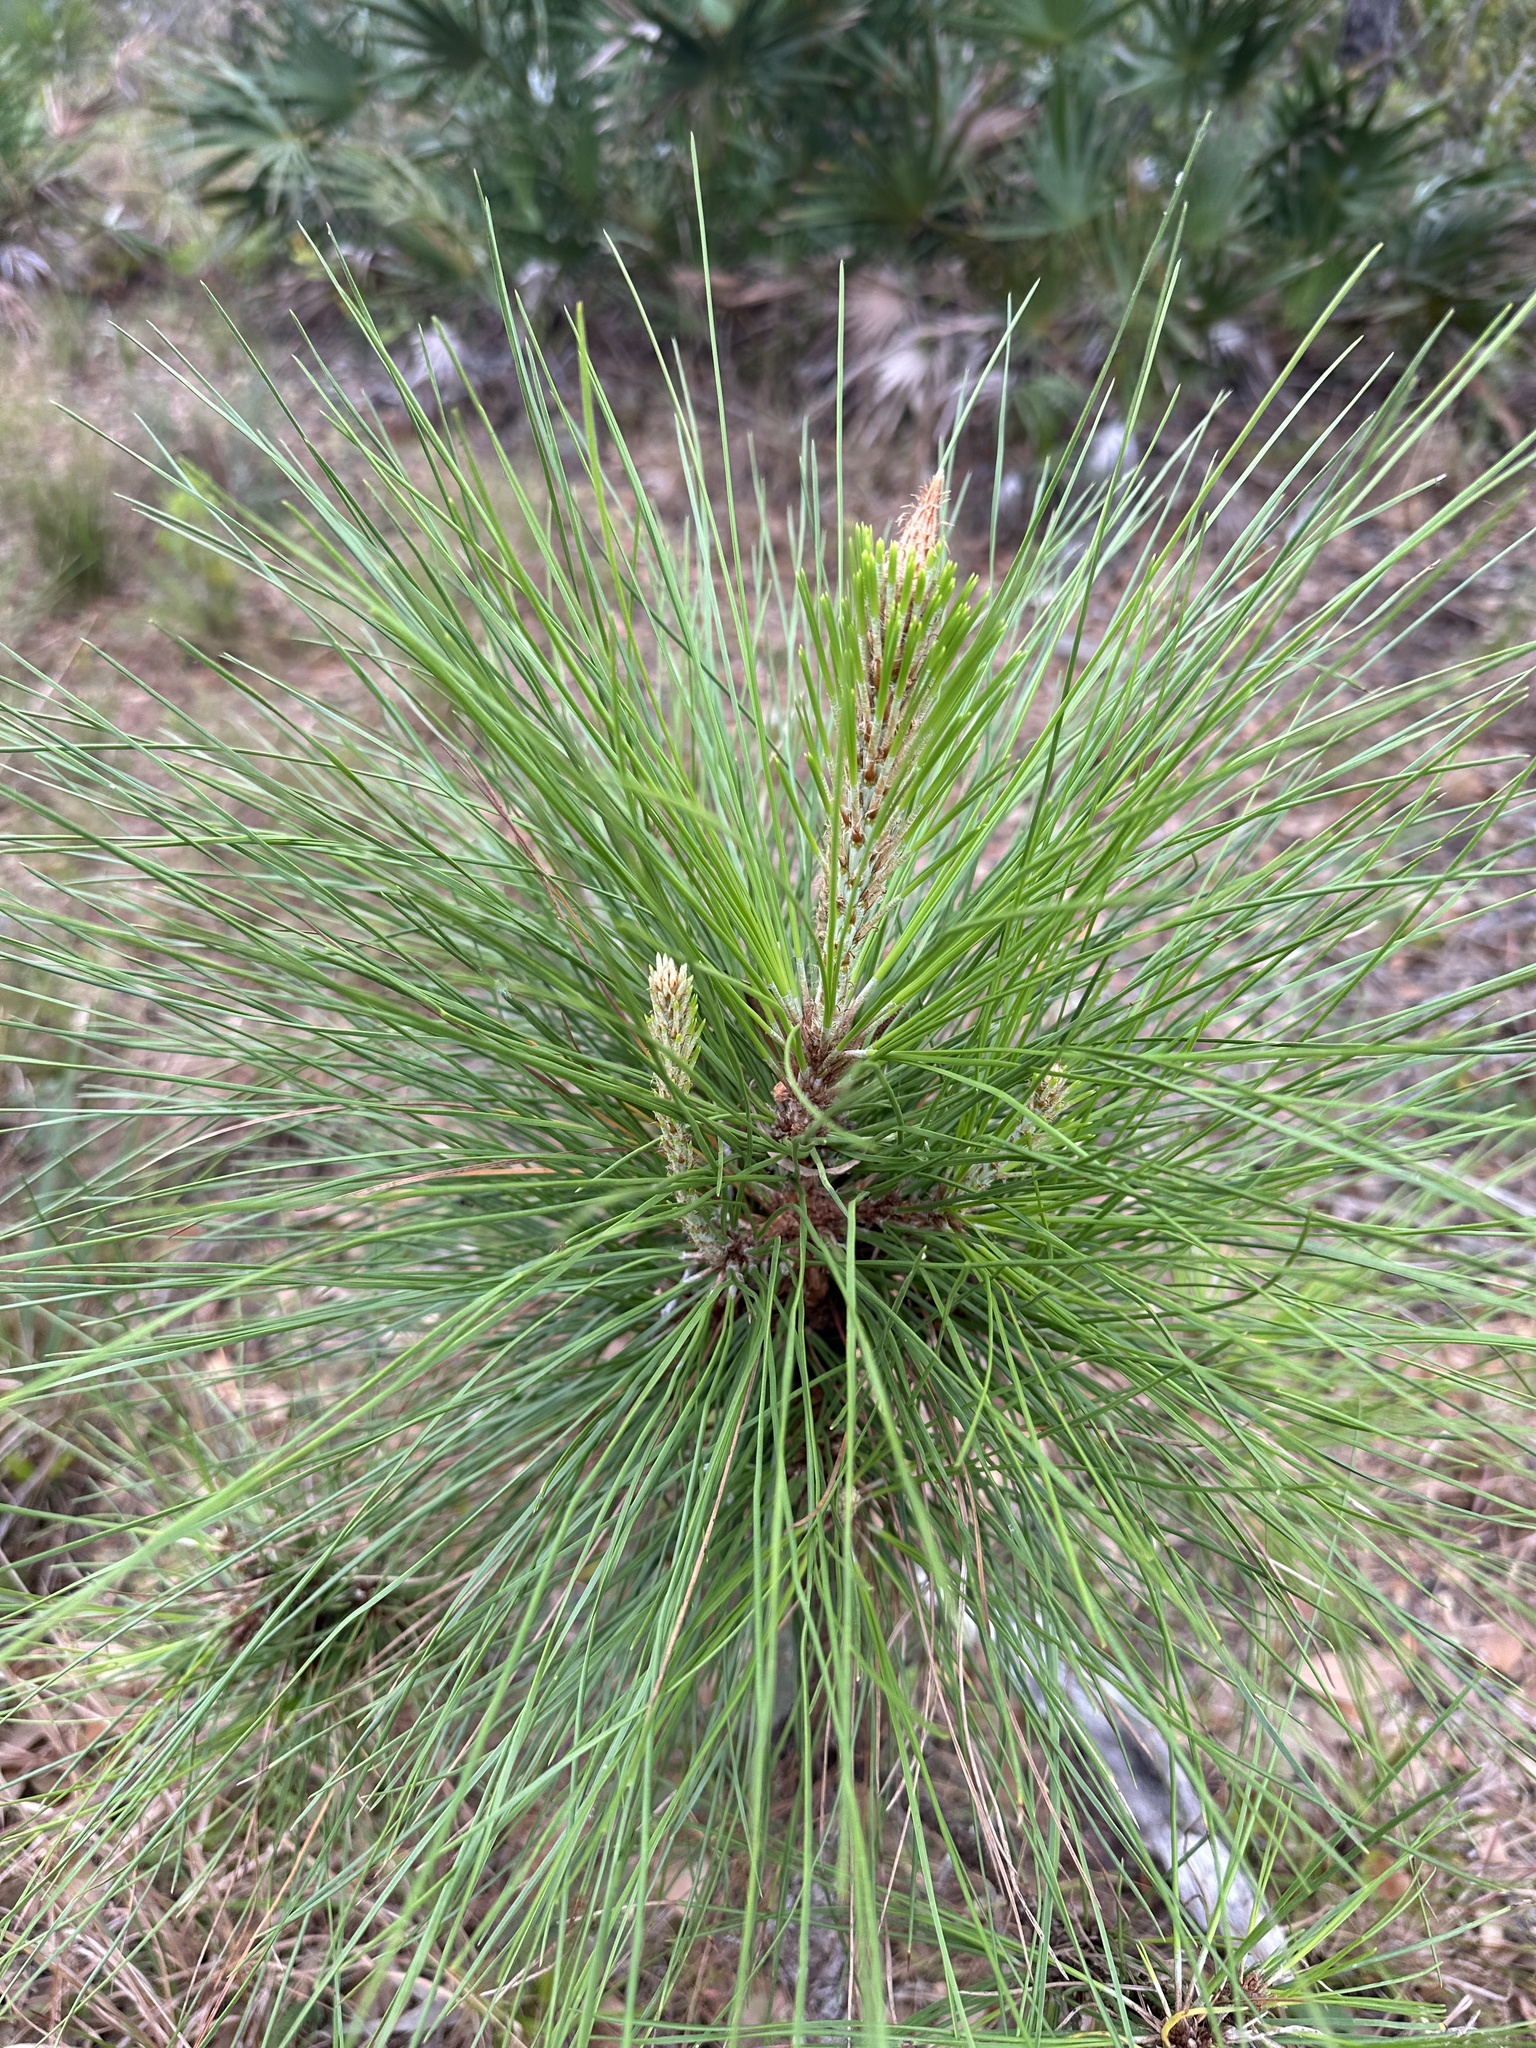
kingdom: Plantae
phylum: Tracheophyta
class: Pinopsida
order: Pinales
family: Pinaceae
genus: Pinus
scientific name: Pinus elliottii
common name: Slash pine
